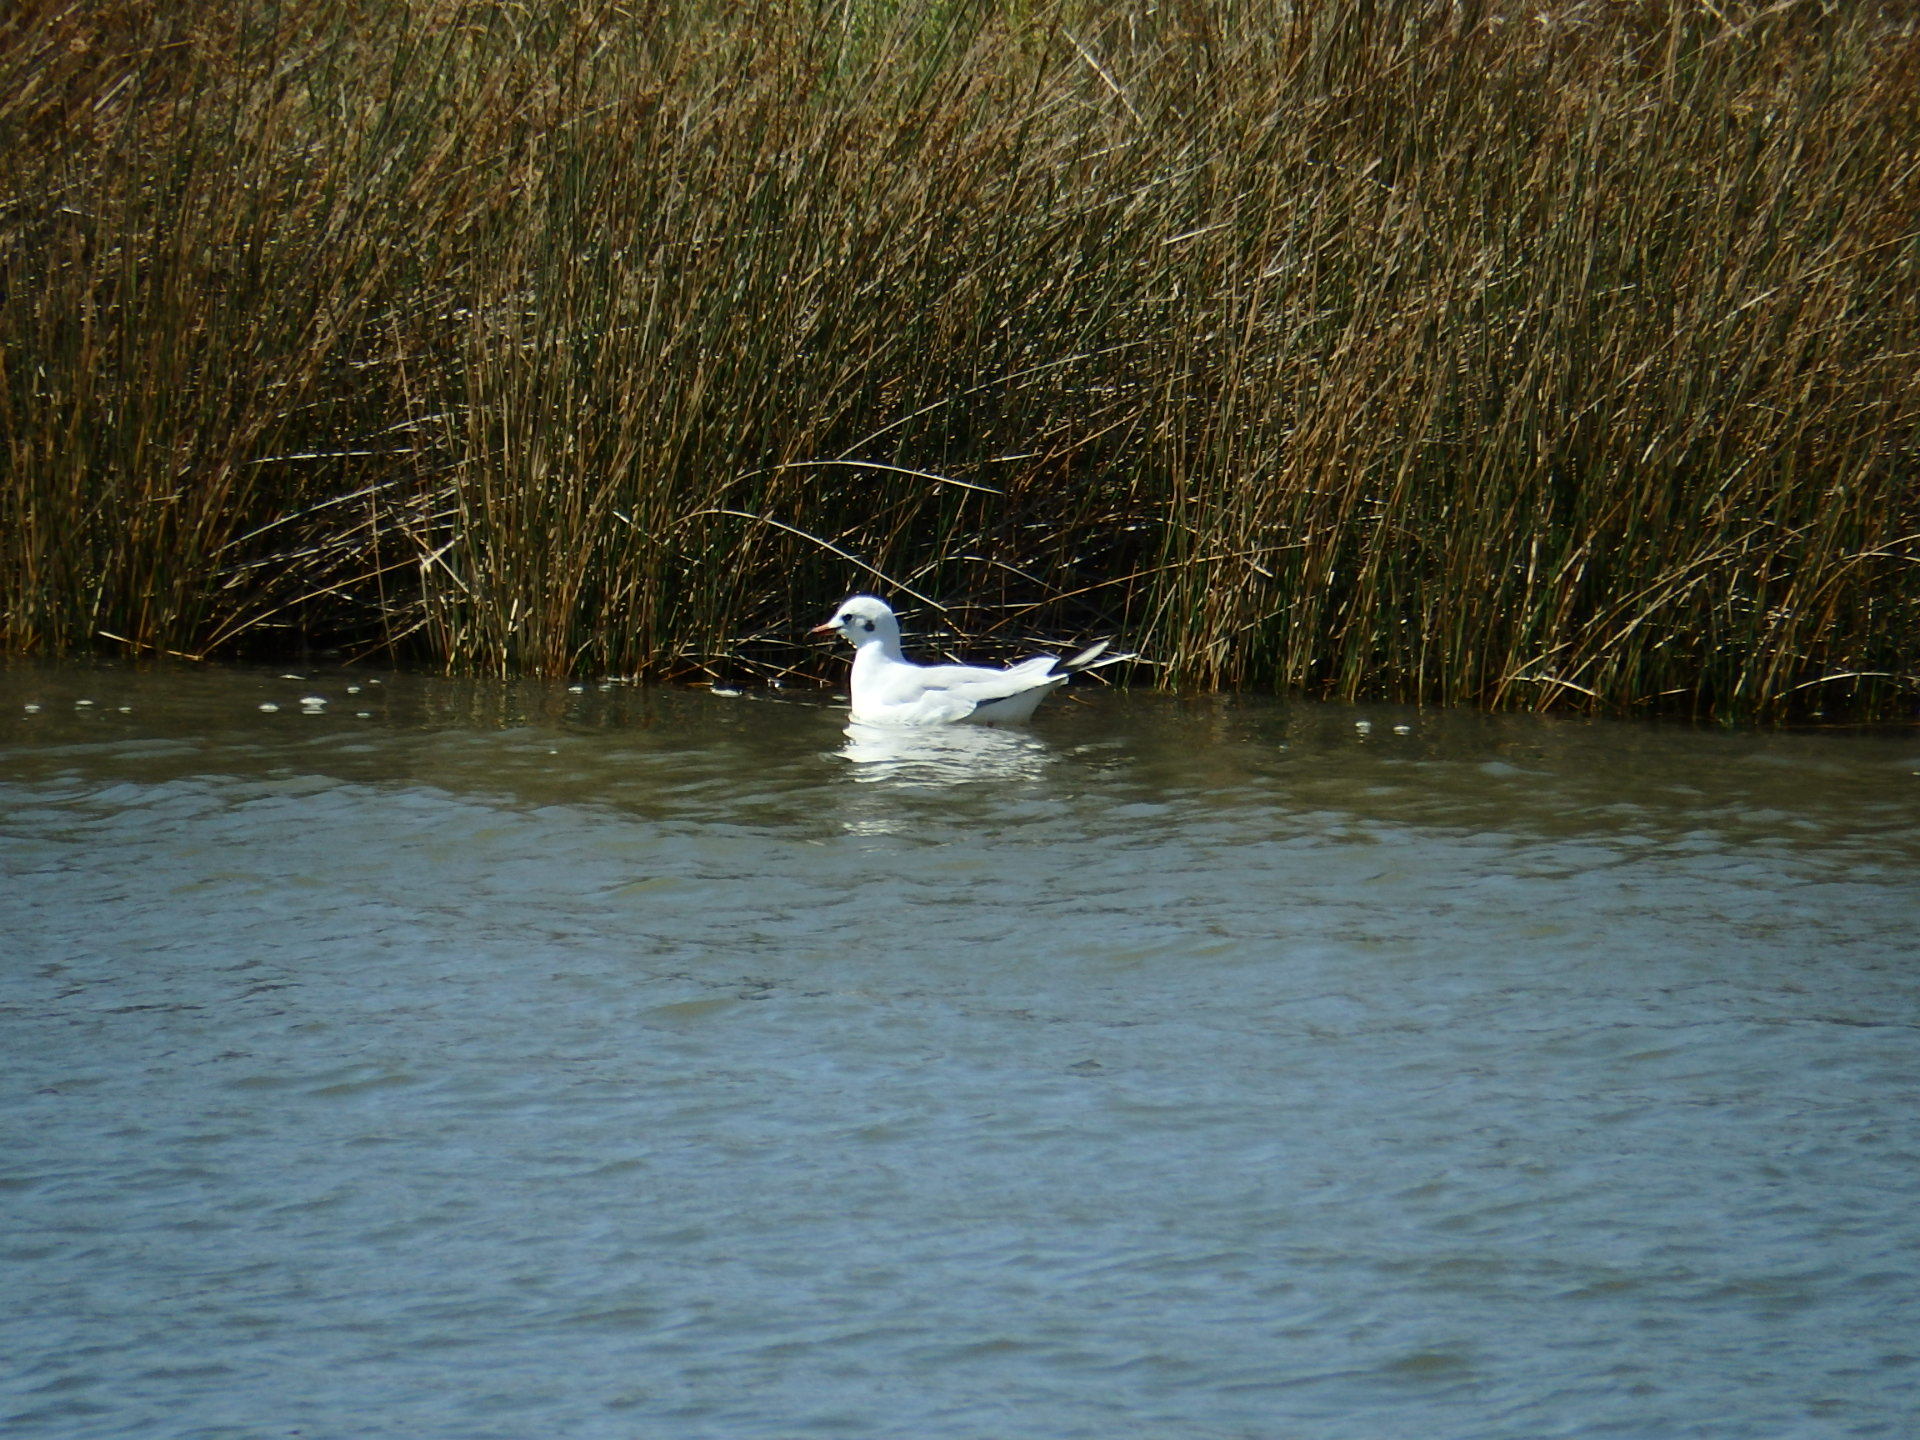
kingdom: Animalia
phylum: Chordata
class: Aves
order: Charadriiformes
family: Laridae
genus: Chroicocephalus
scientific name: Chroicocephalus ridibundus
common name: Black-headed gull
